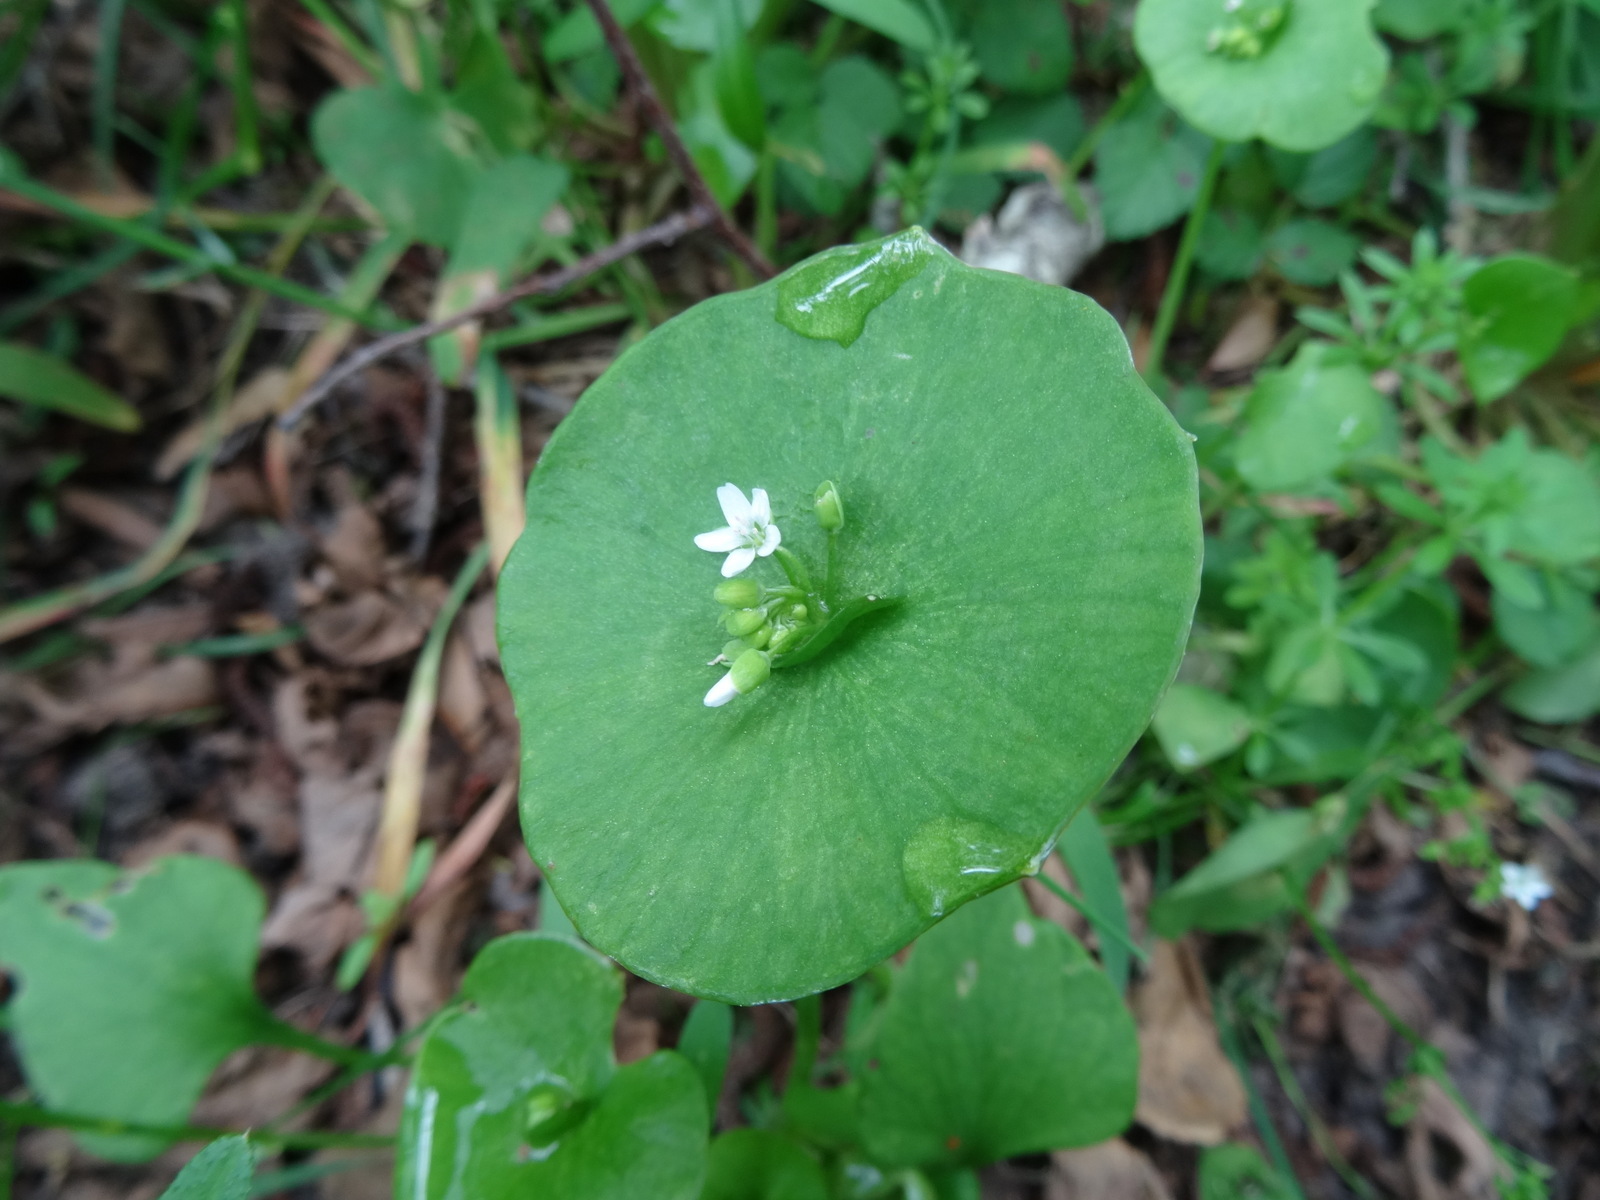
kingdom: Plantae
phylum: Tracheophyta
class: Magnoliopsida
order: Caryophyllales
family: Montiaceae
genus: Claytonia
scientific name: Claytonia perfoliata
